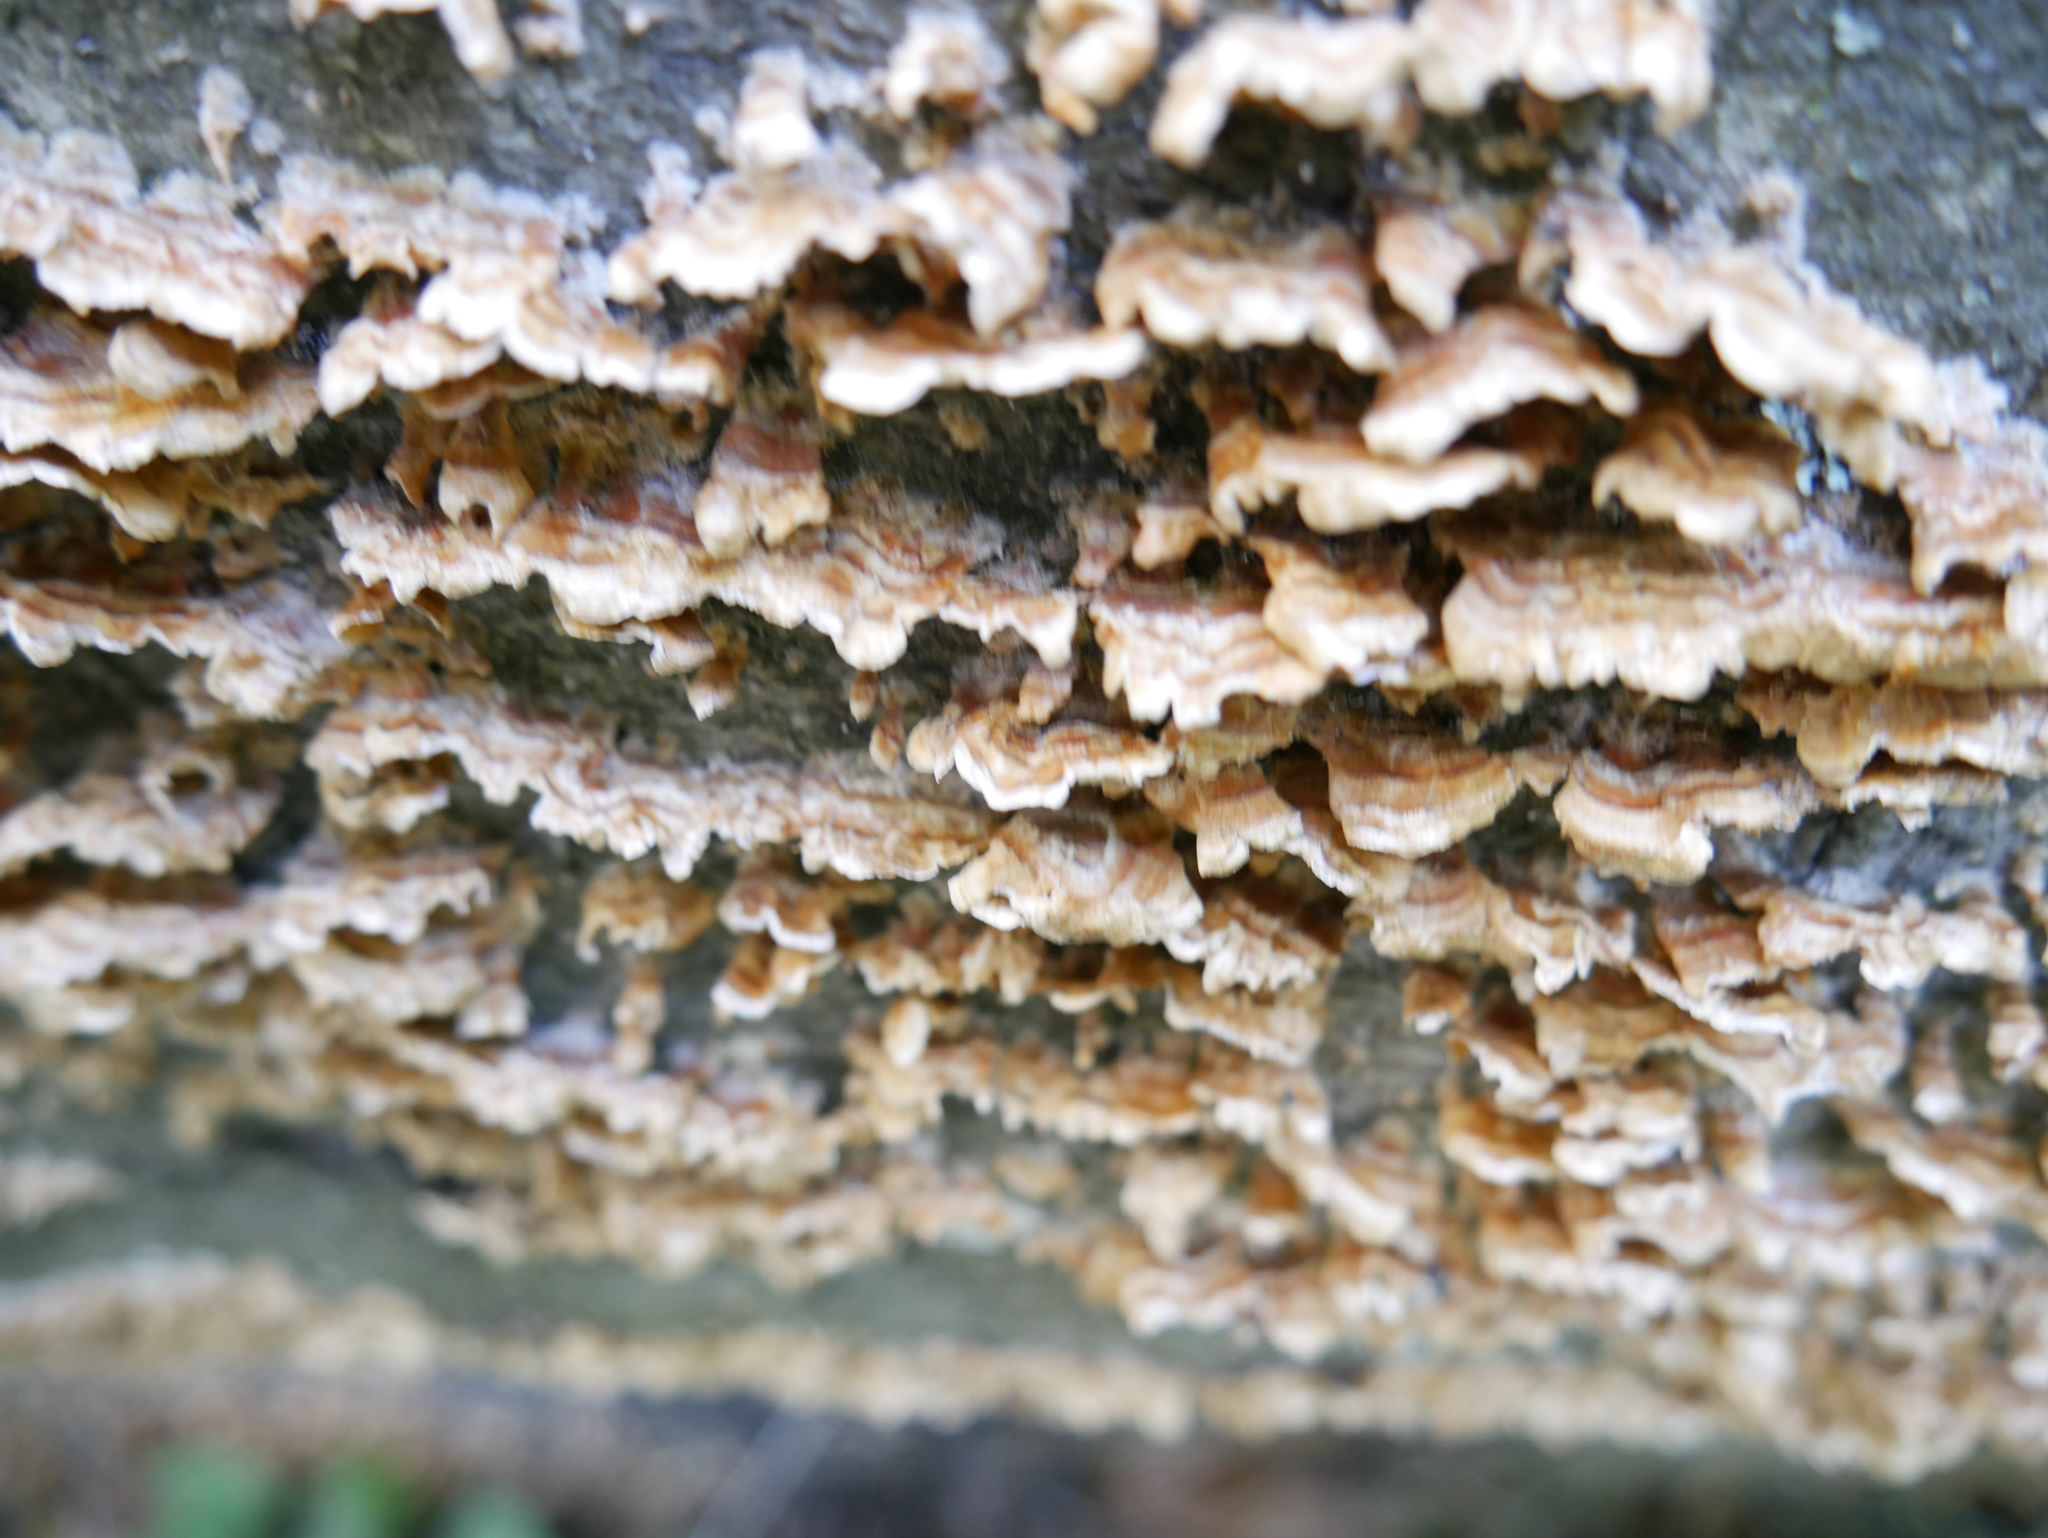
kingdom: Fungi
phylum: Basidiomycota
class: Agaricomycetes
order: Russulales
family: Stereaceae
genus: Stereum
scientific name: Stereum complicatum
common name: Crowded parchment
